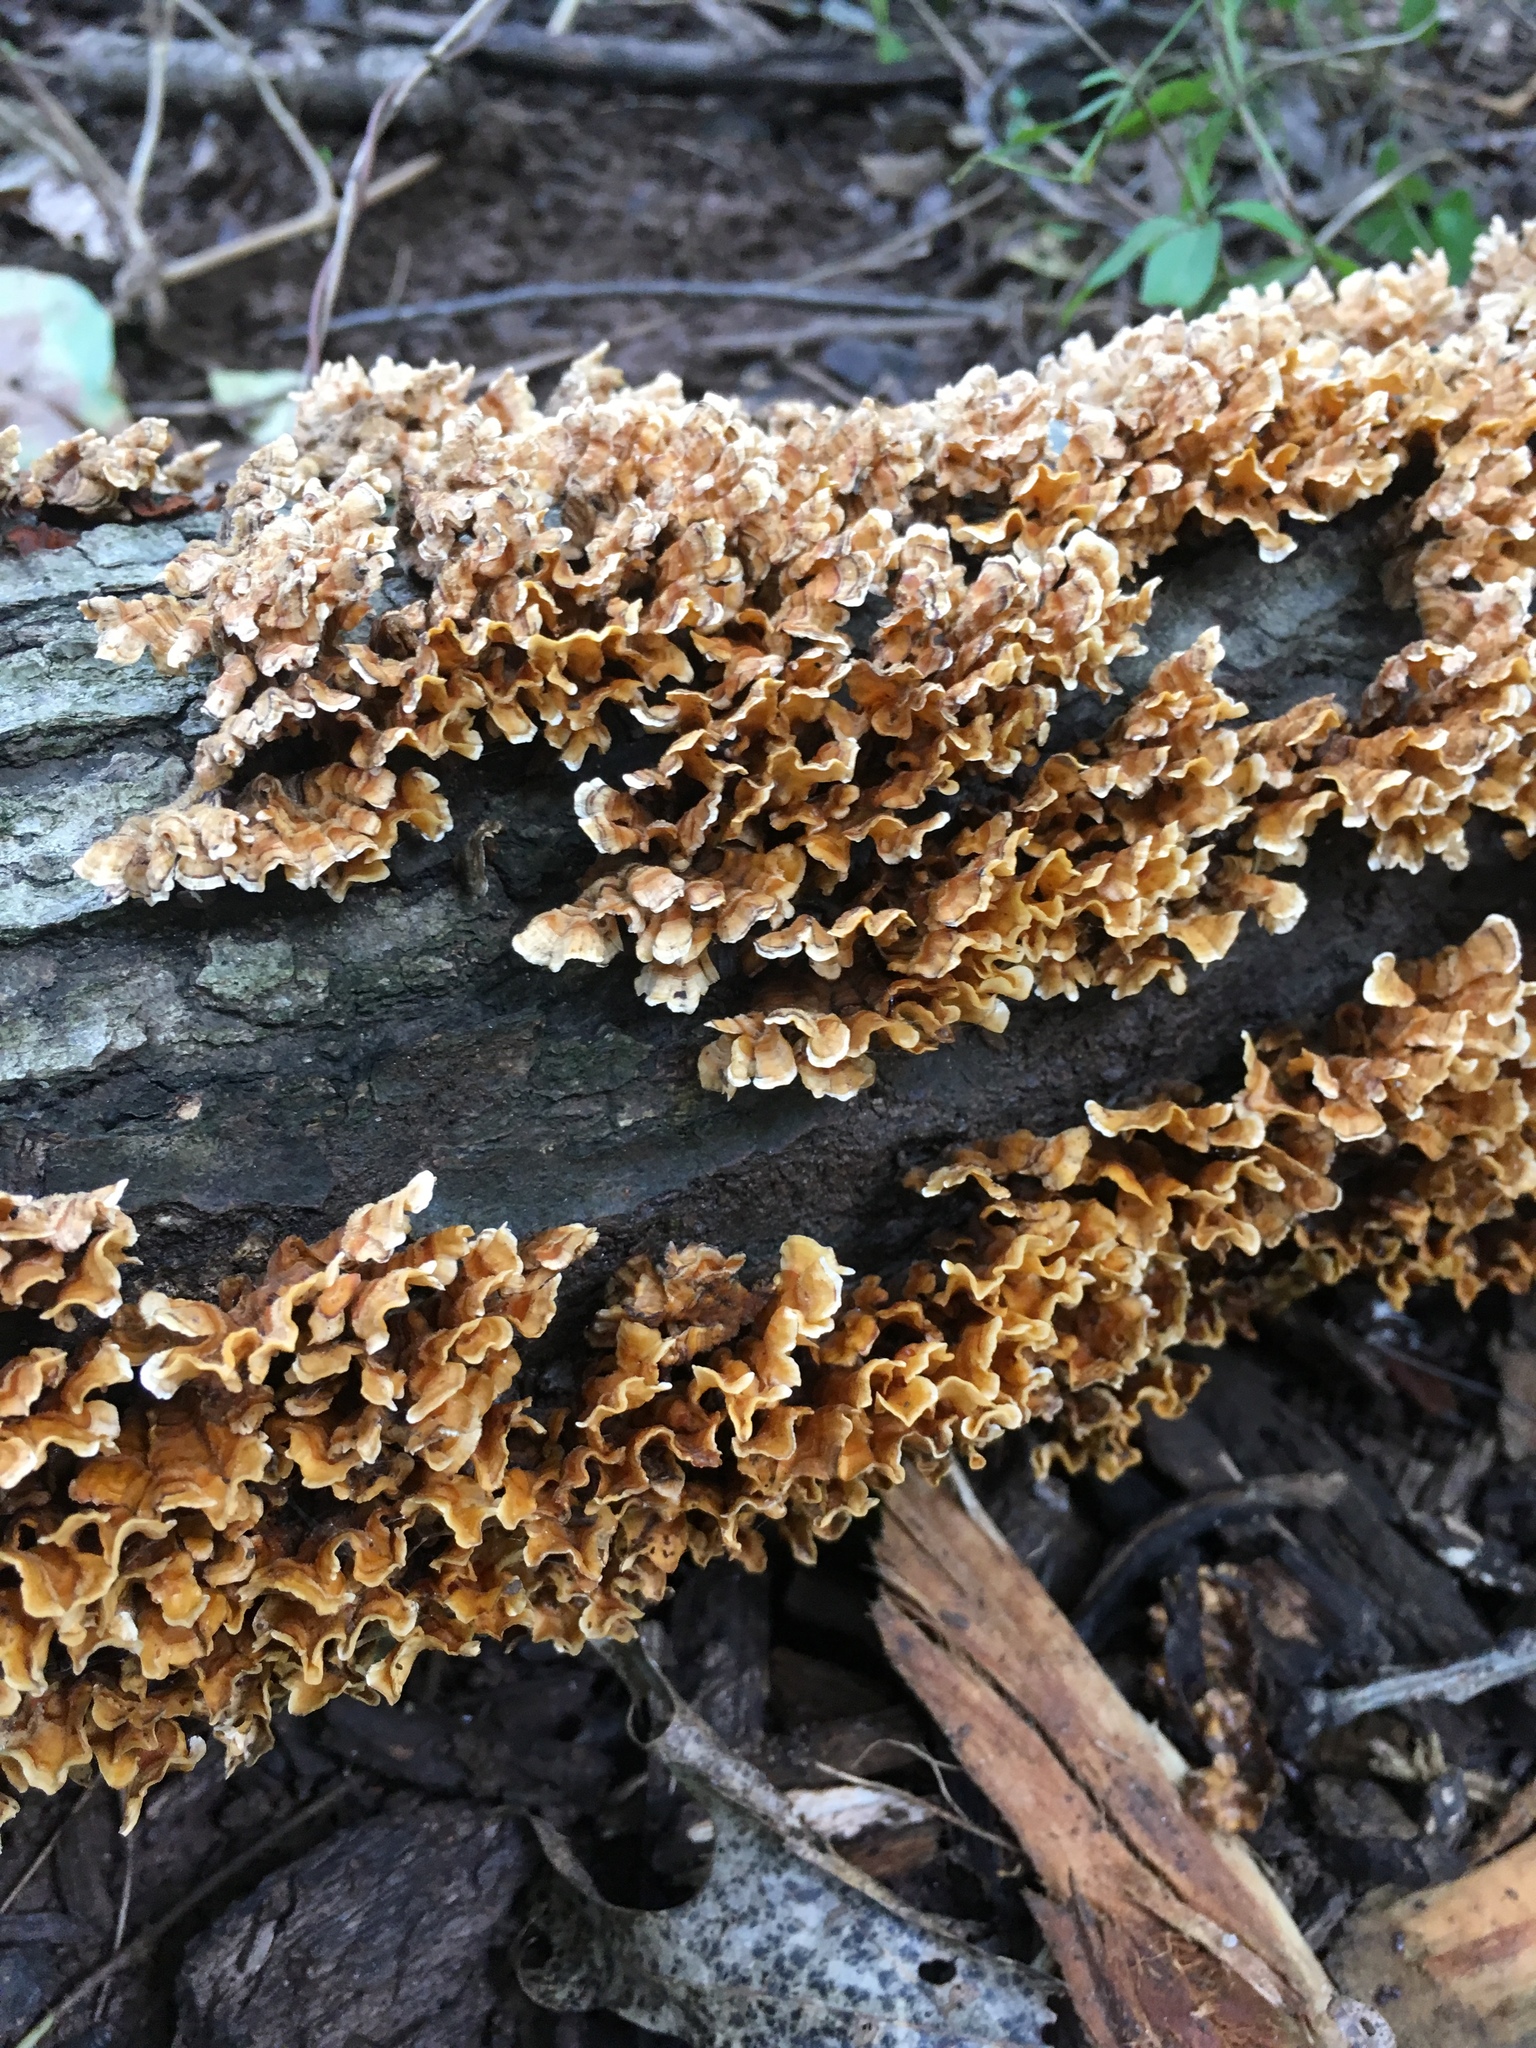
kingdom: Fungi
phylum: Basidiomycota
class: Agaricomycetes
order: Russulales
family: Stereaceae
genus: Stereum
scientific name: Stereum complicatum
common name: Crowded parchment
